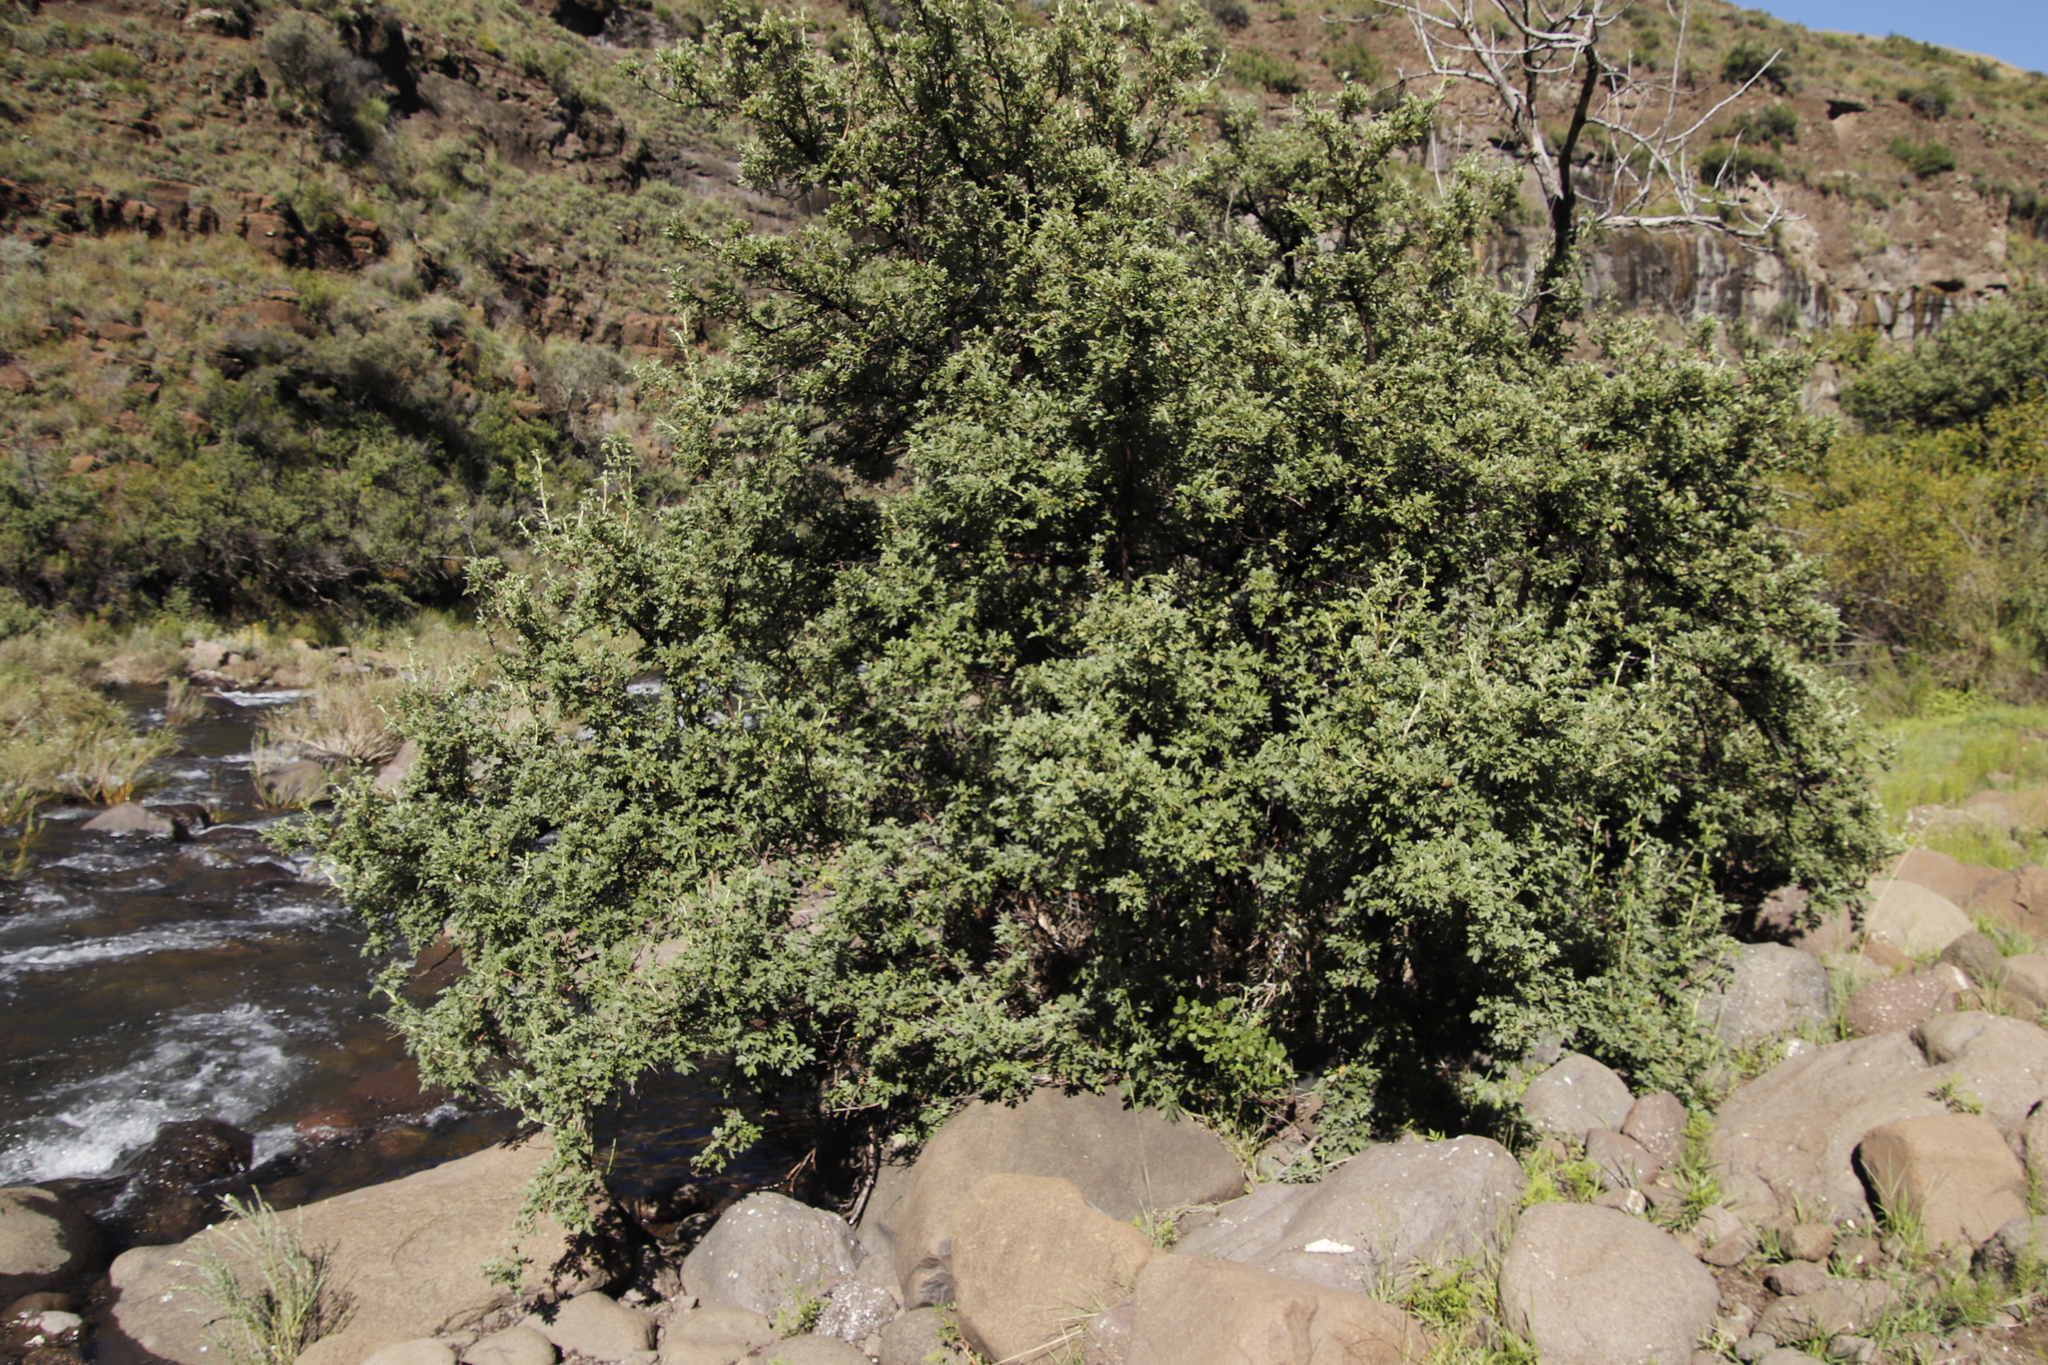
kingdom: Plantae
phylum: Tracheophyta
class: Magnoliopsida
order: Rosales
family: Rosaceae
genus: Leucosidea
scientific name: Leucosidea sericea
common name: Oldwood
